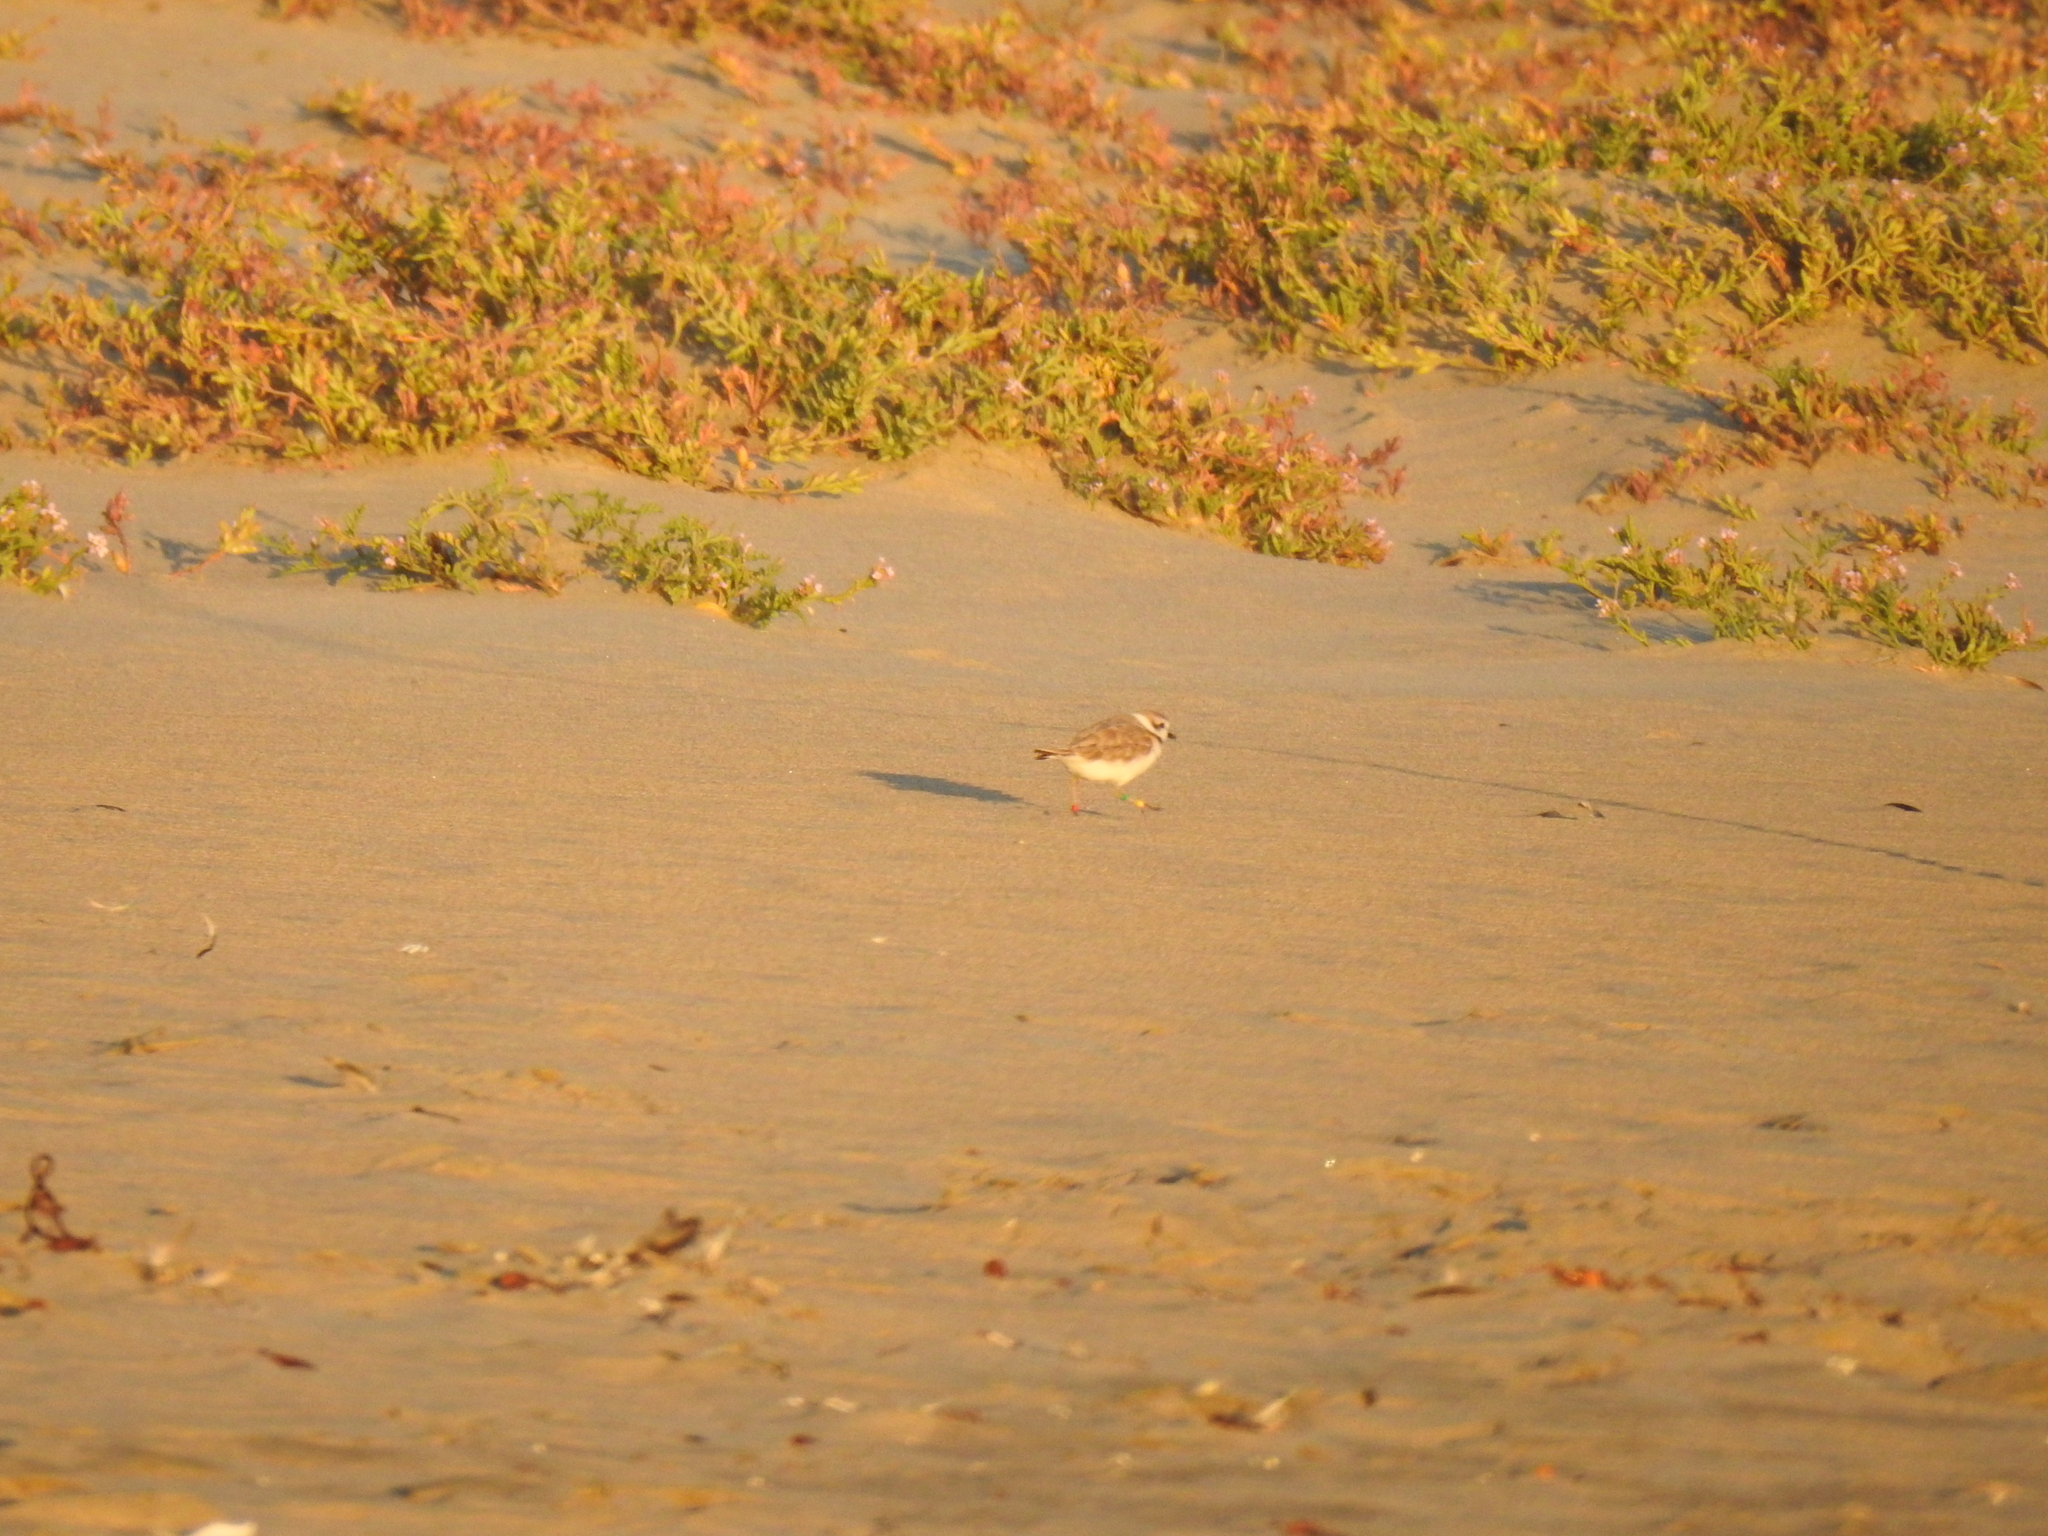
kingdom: Animalia
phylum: Chordata
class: Aves
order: Charadriiformes
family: Charadriidae
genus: Anarhynchus
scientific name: Anarhynchus
